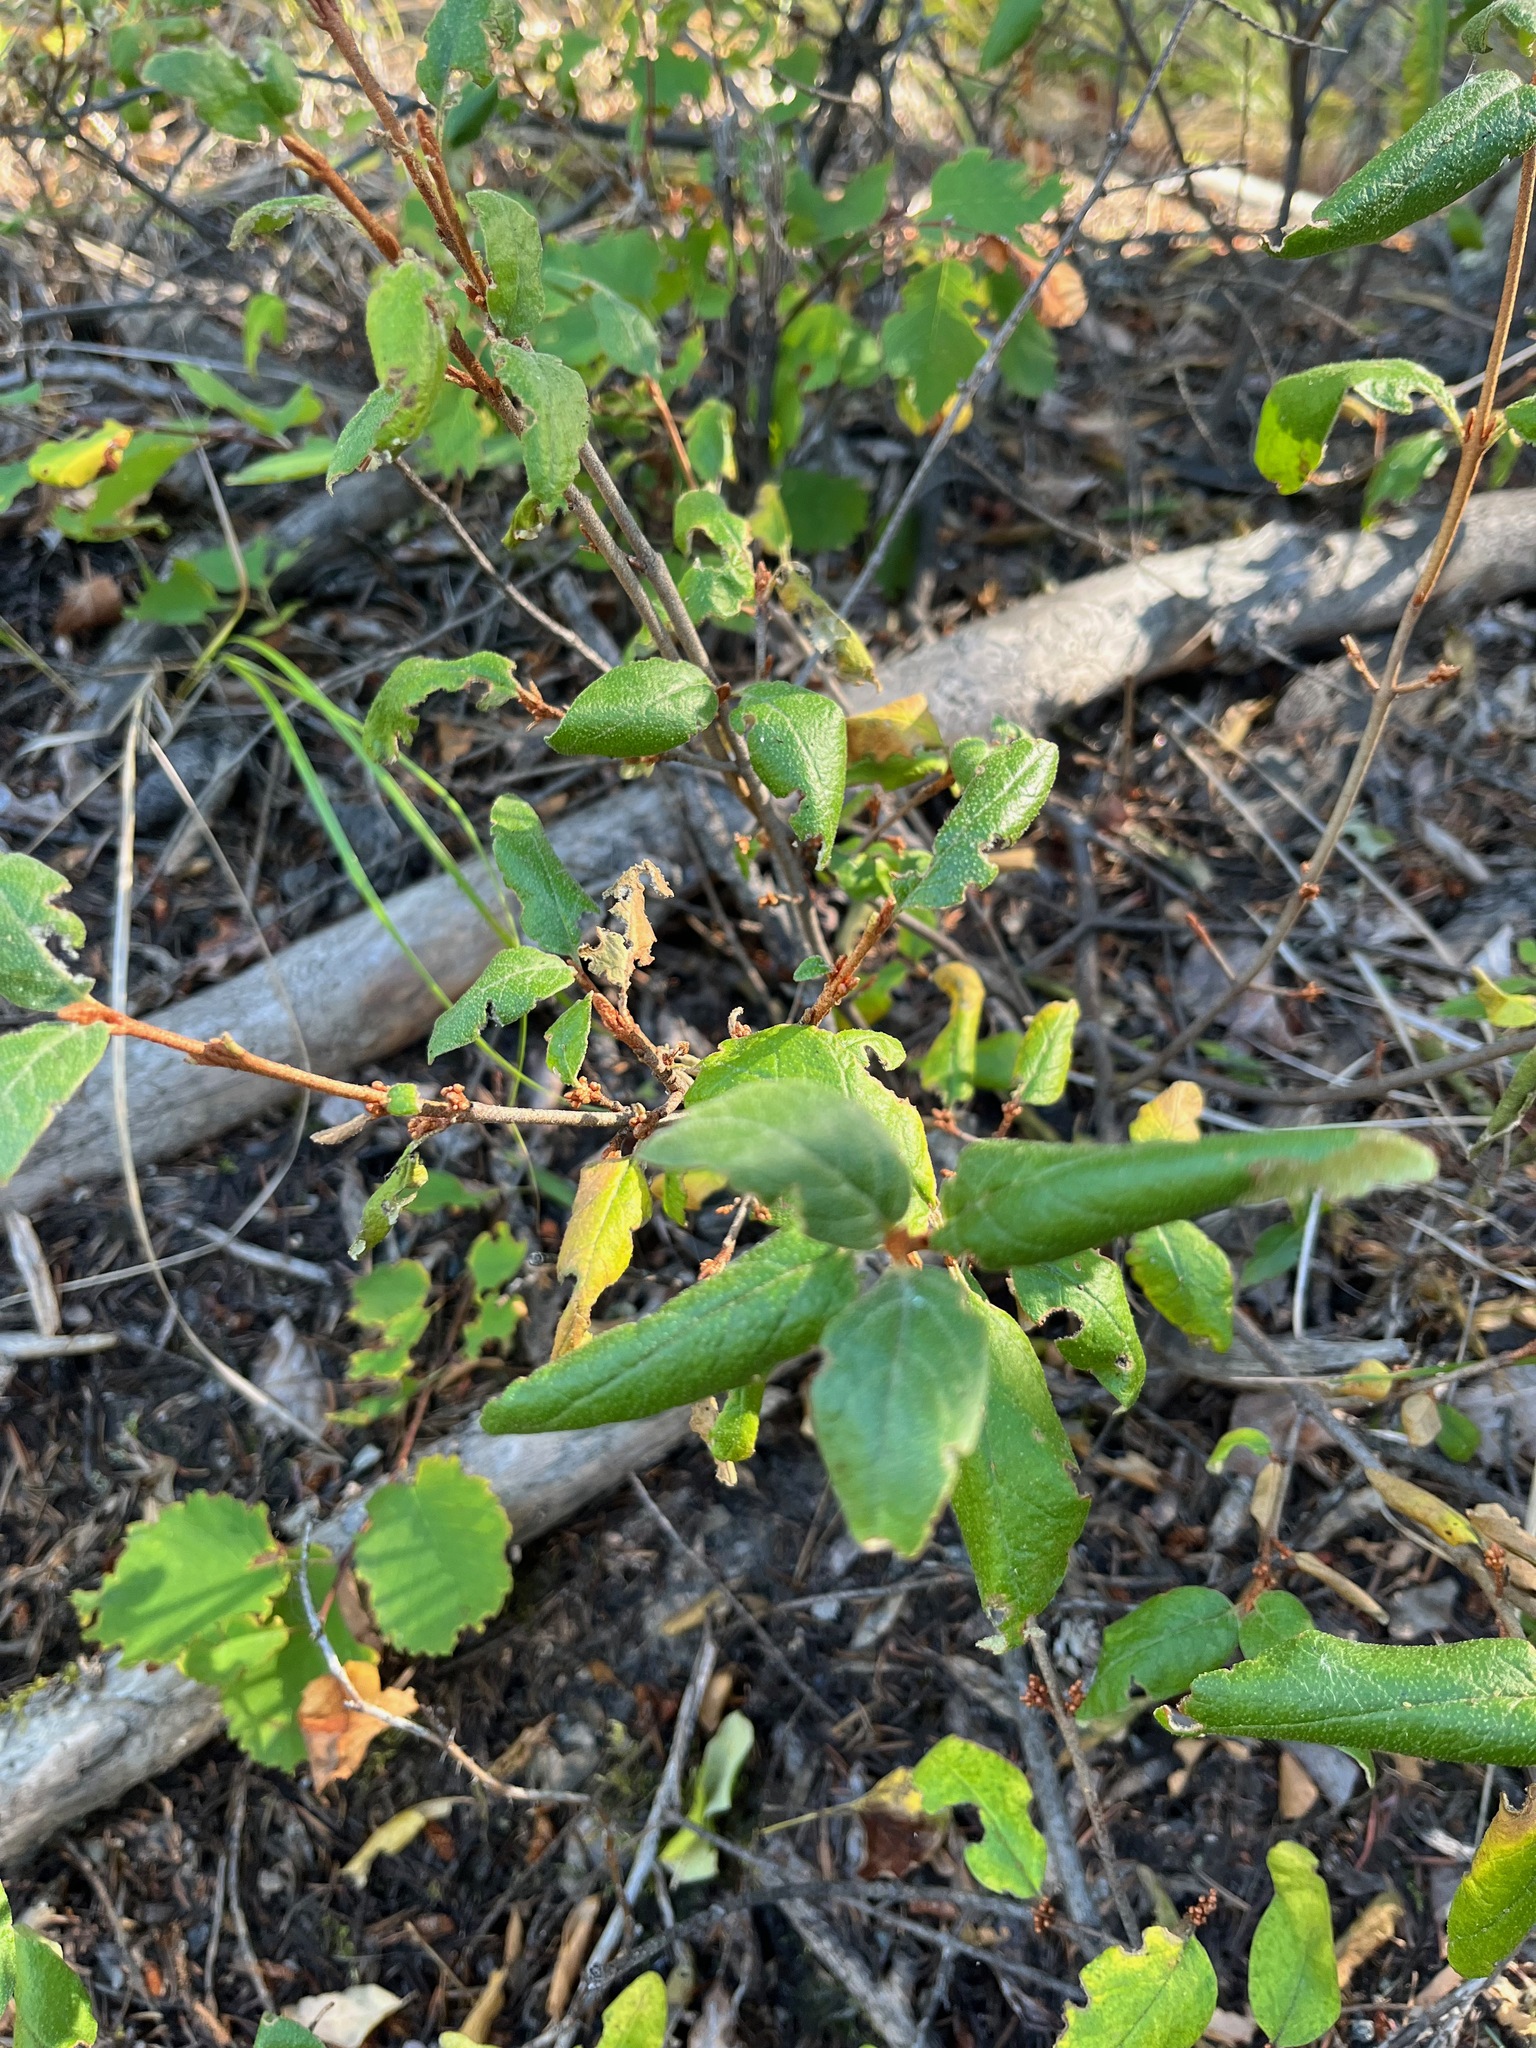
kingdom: Plantae
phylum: Tracheophyta
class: Magnoliopsida
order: Rosales
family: Elaeagnaceae
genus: Shepherdia
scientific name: Shepherdia canadensis
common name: Soapberry
